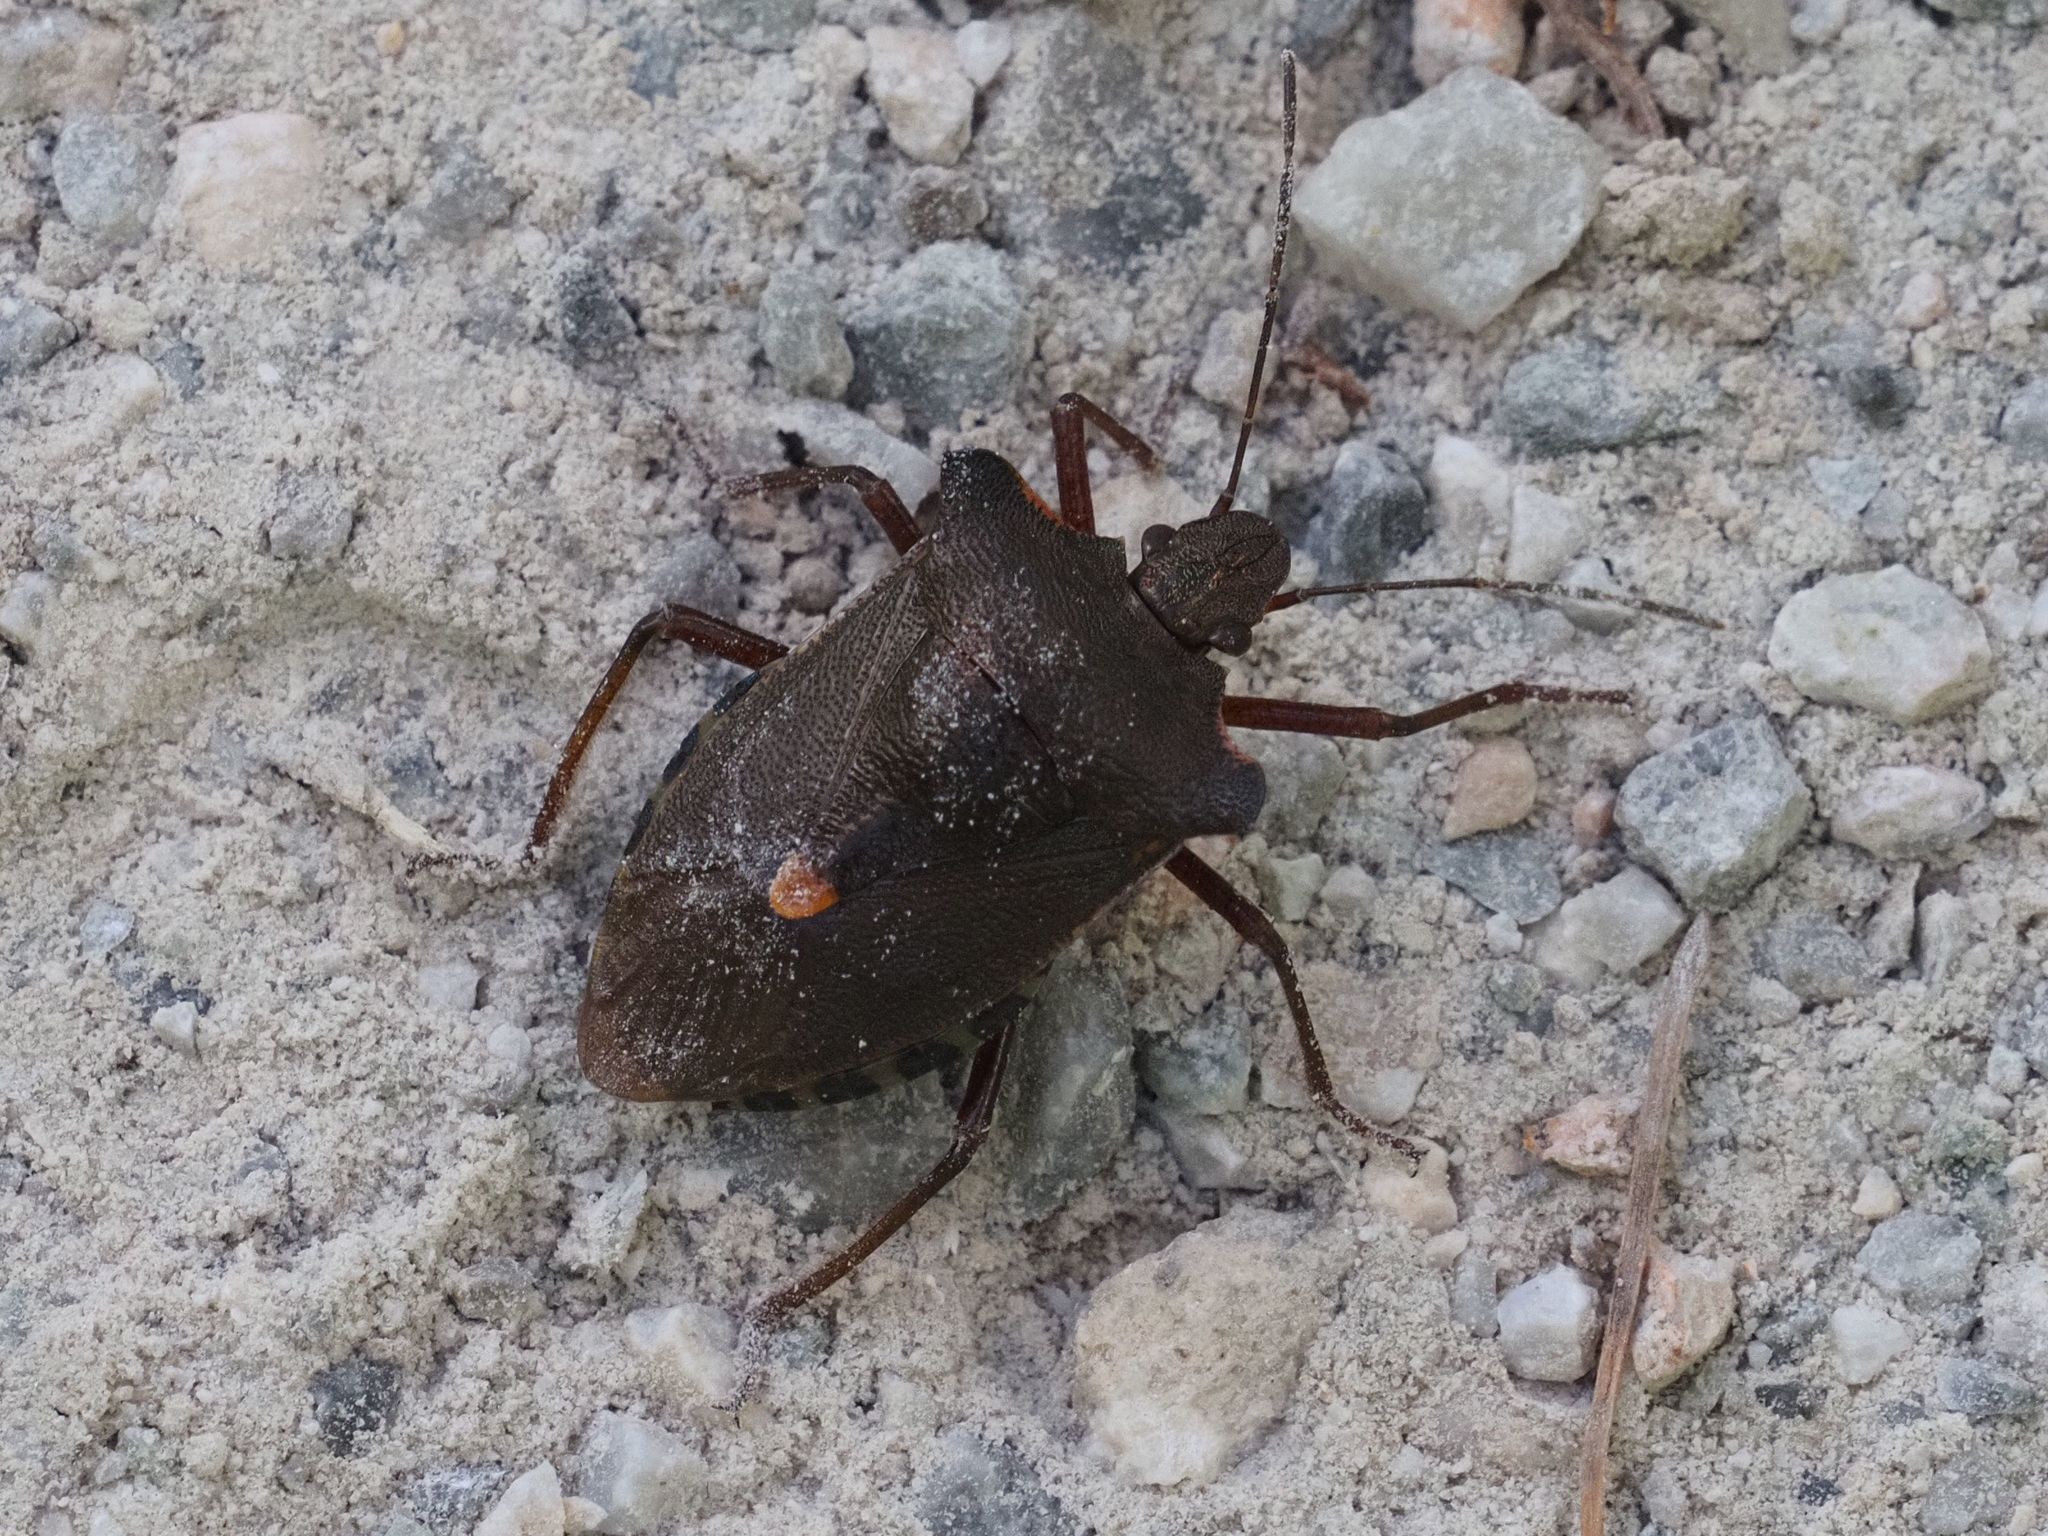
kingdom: Animalia
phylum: Arthropoda
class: Insecta
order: Hemiptera
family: Pentatomidae
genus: Pentatoma
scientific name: Pentatoma rufipes
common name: Forest bug
